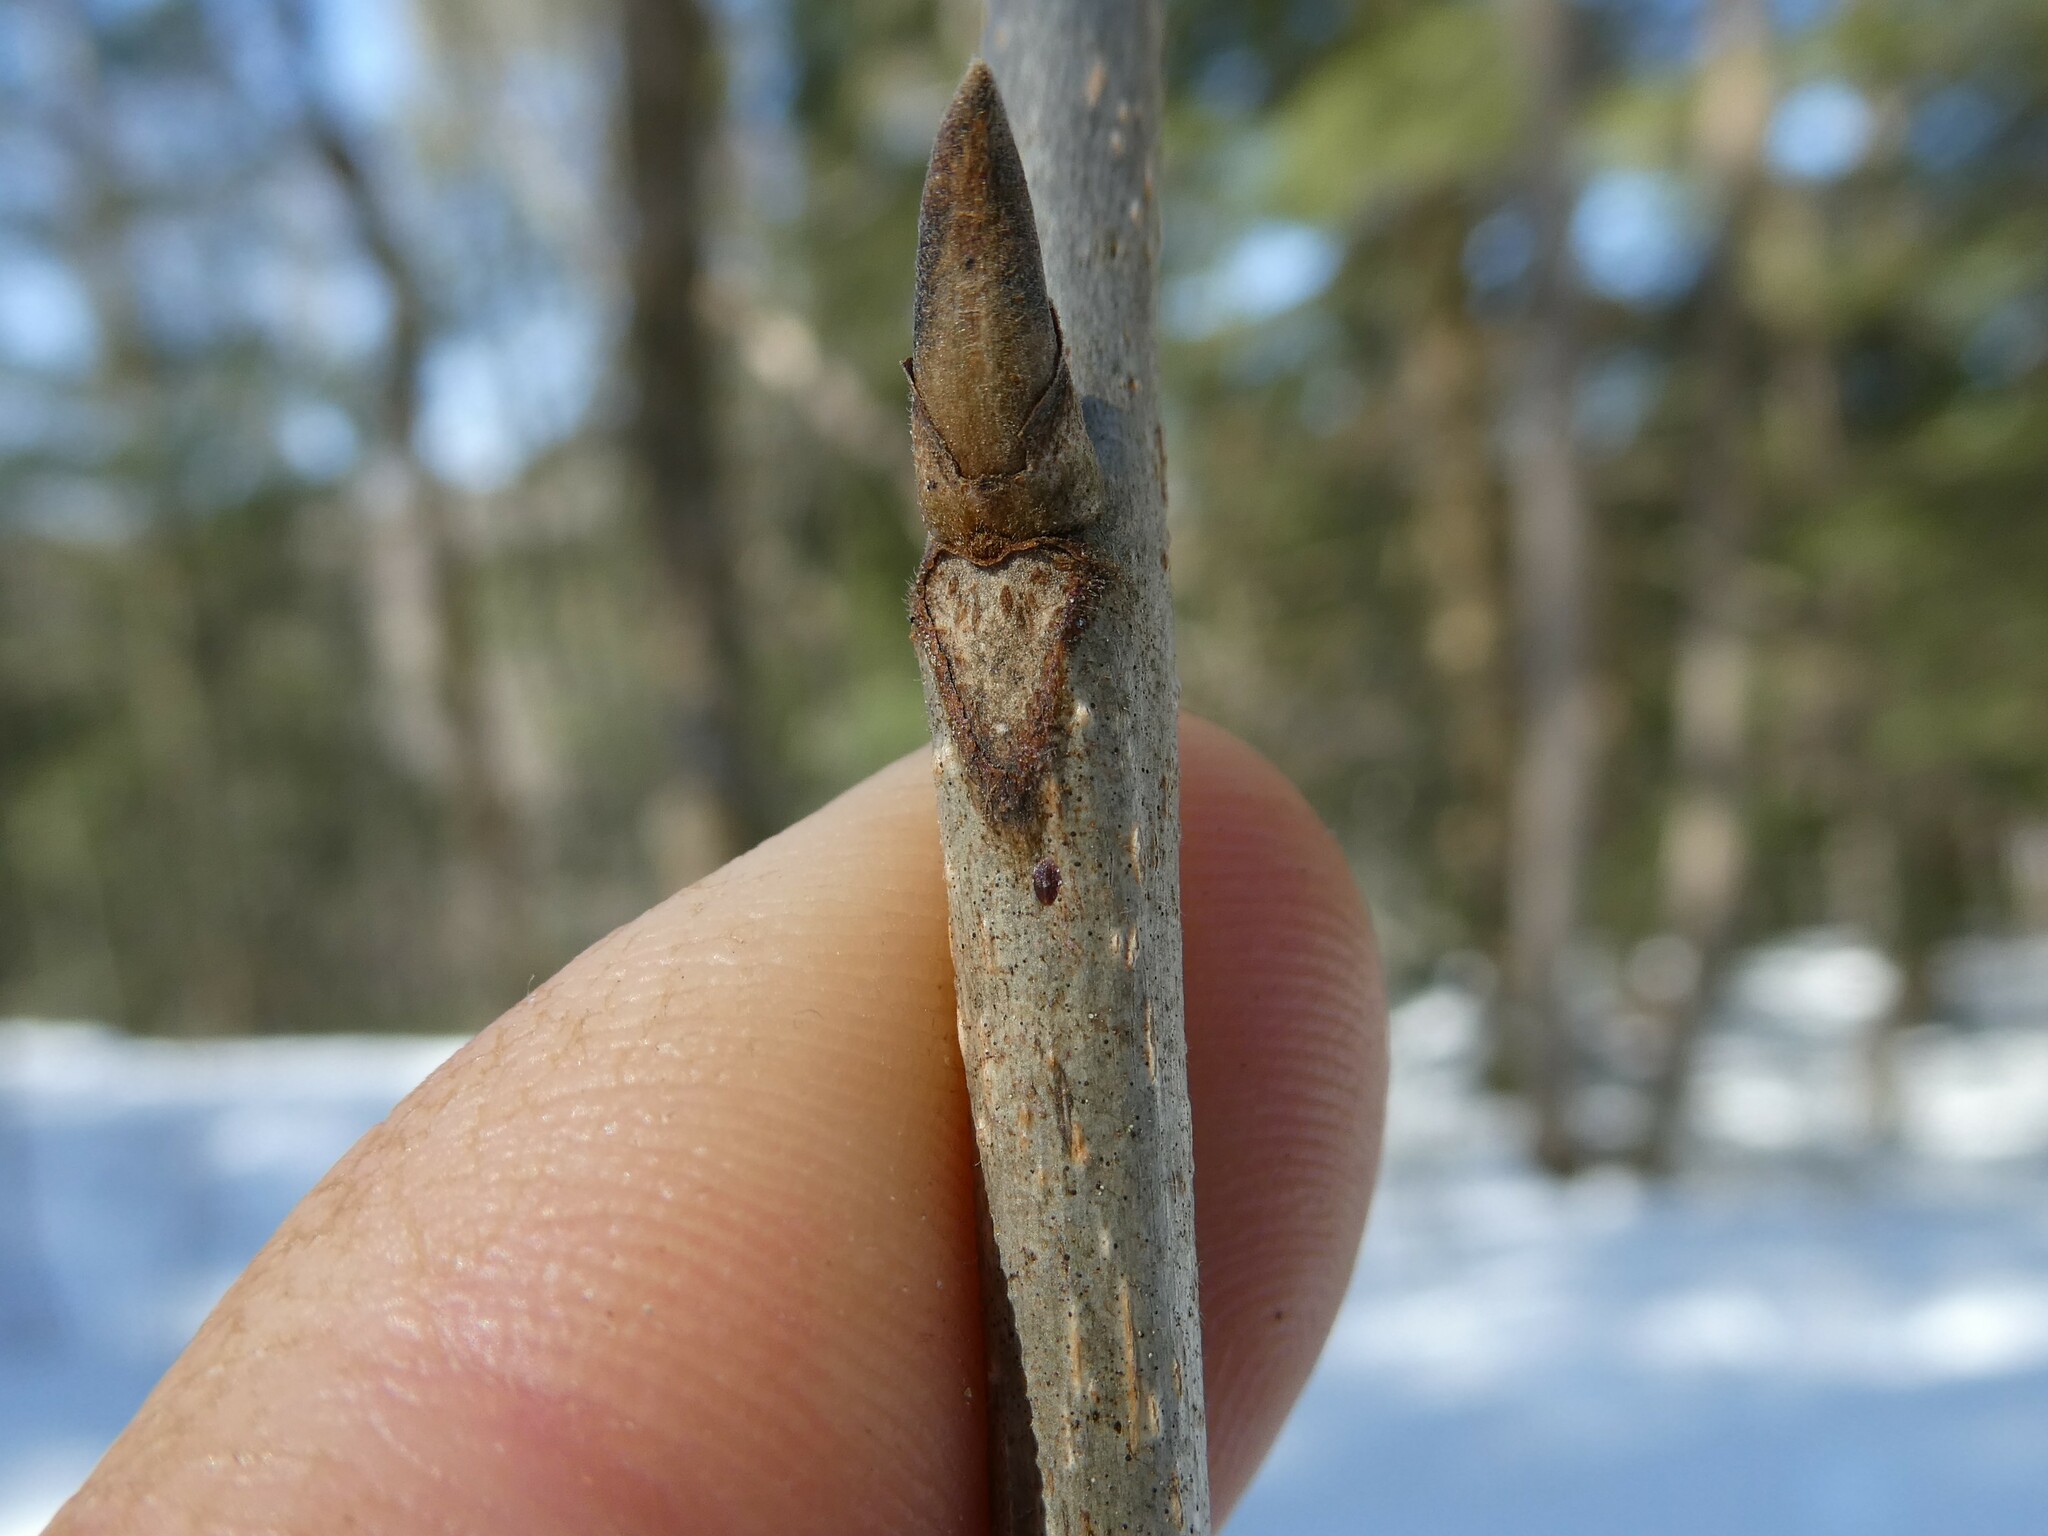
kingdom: Plantae
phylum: Tracheophyta
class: Magnoliopsida
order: Fagales
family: Juglandaceae
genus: Carya
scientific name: Carya ovata
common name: Shagbark hickory
